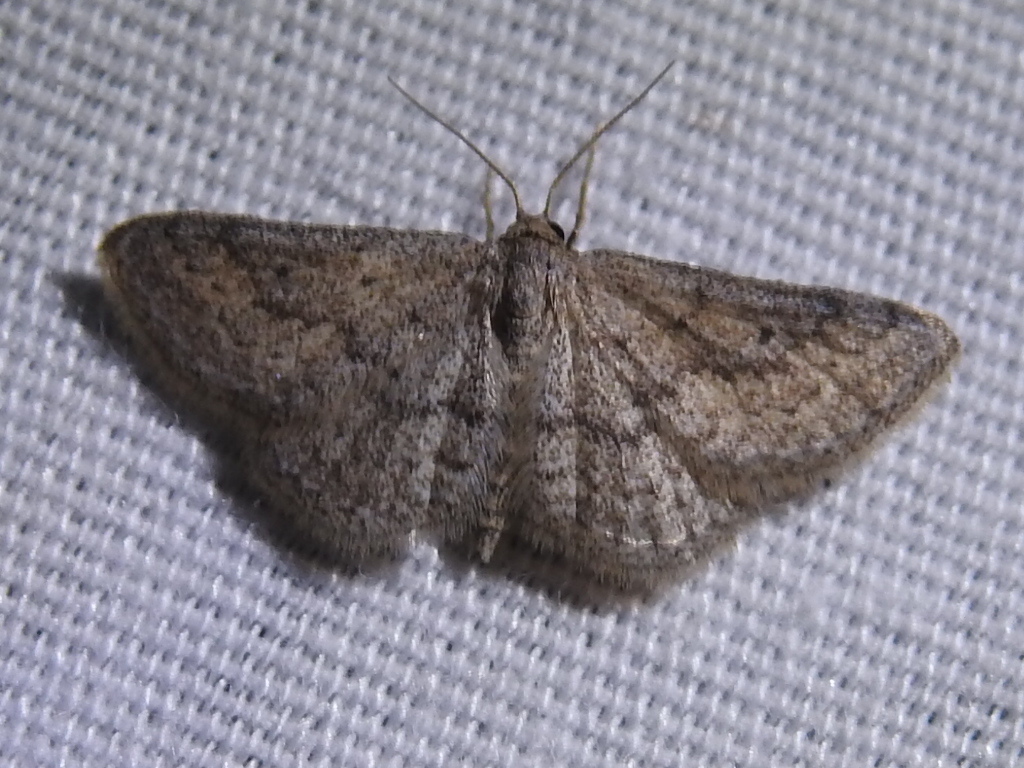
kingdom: Animalia
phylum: Arthropoda
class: Insecta
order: Lepidoptera
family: Geometridae
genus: Lobocleta
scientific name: Lobocleta ossularia
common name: Drab brown wave
